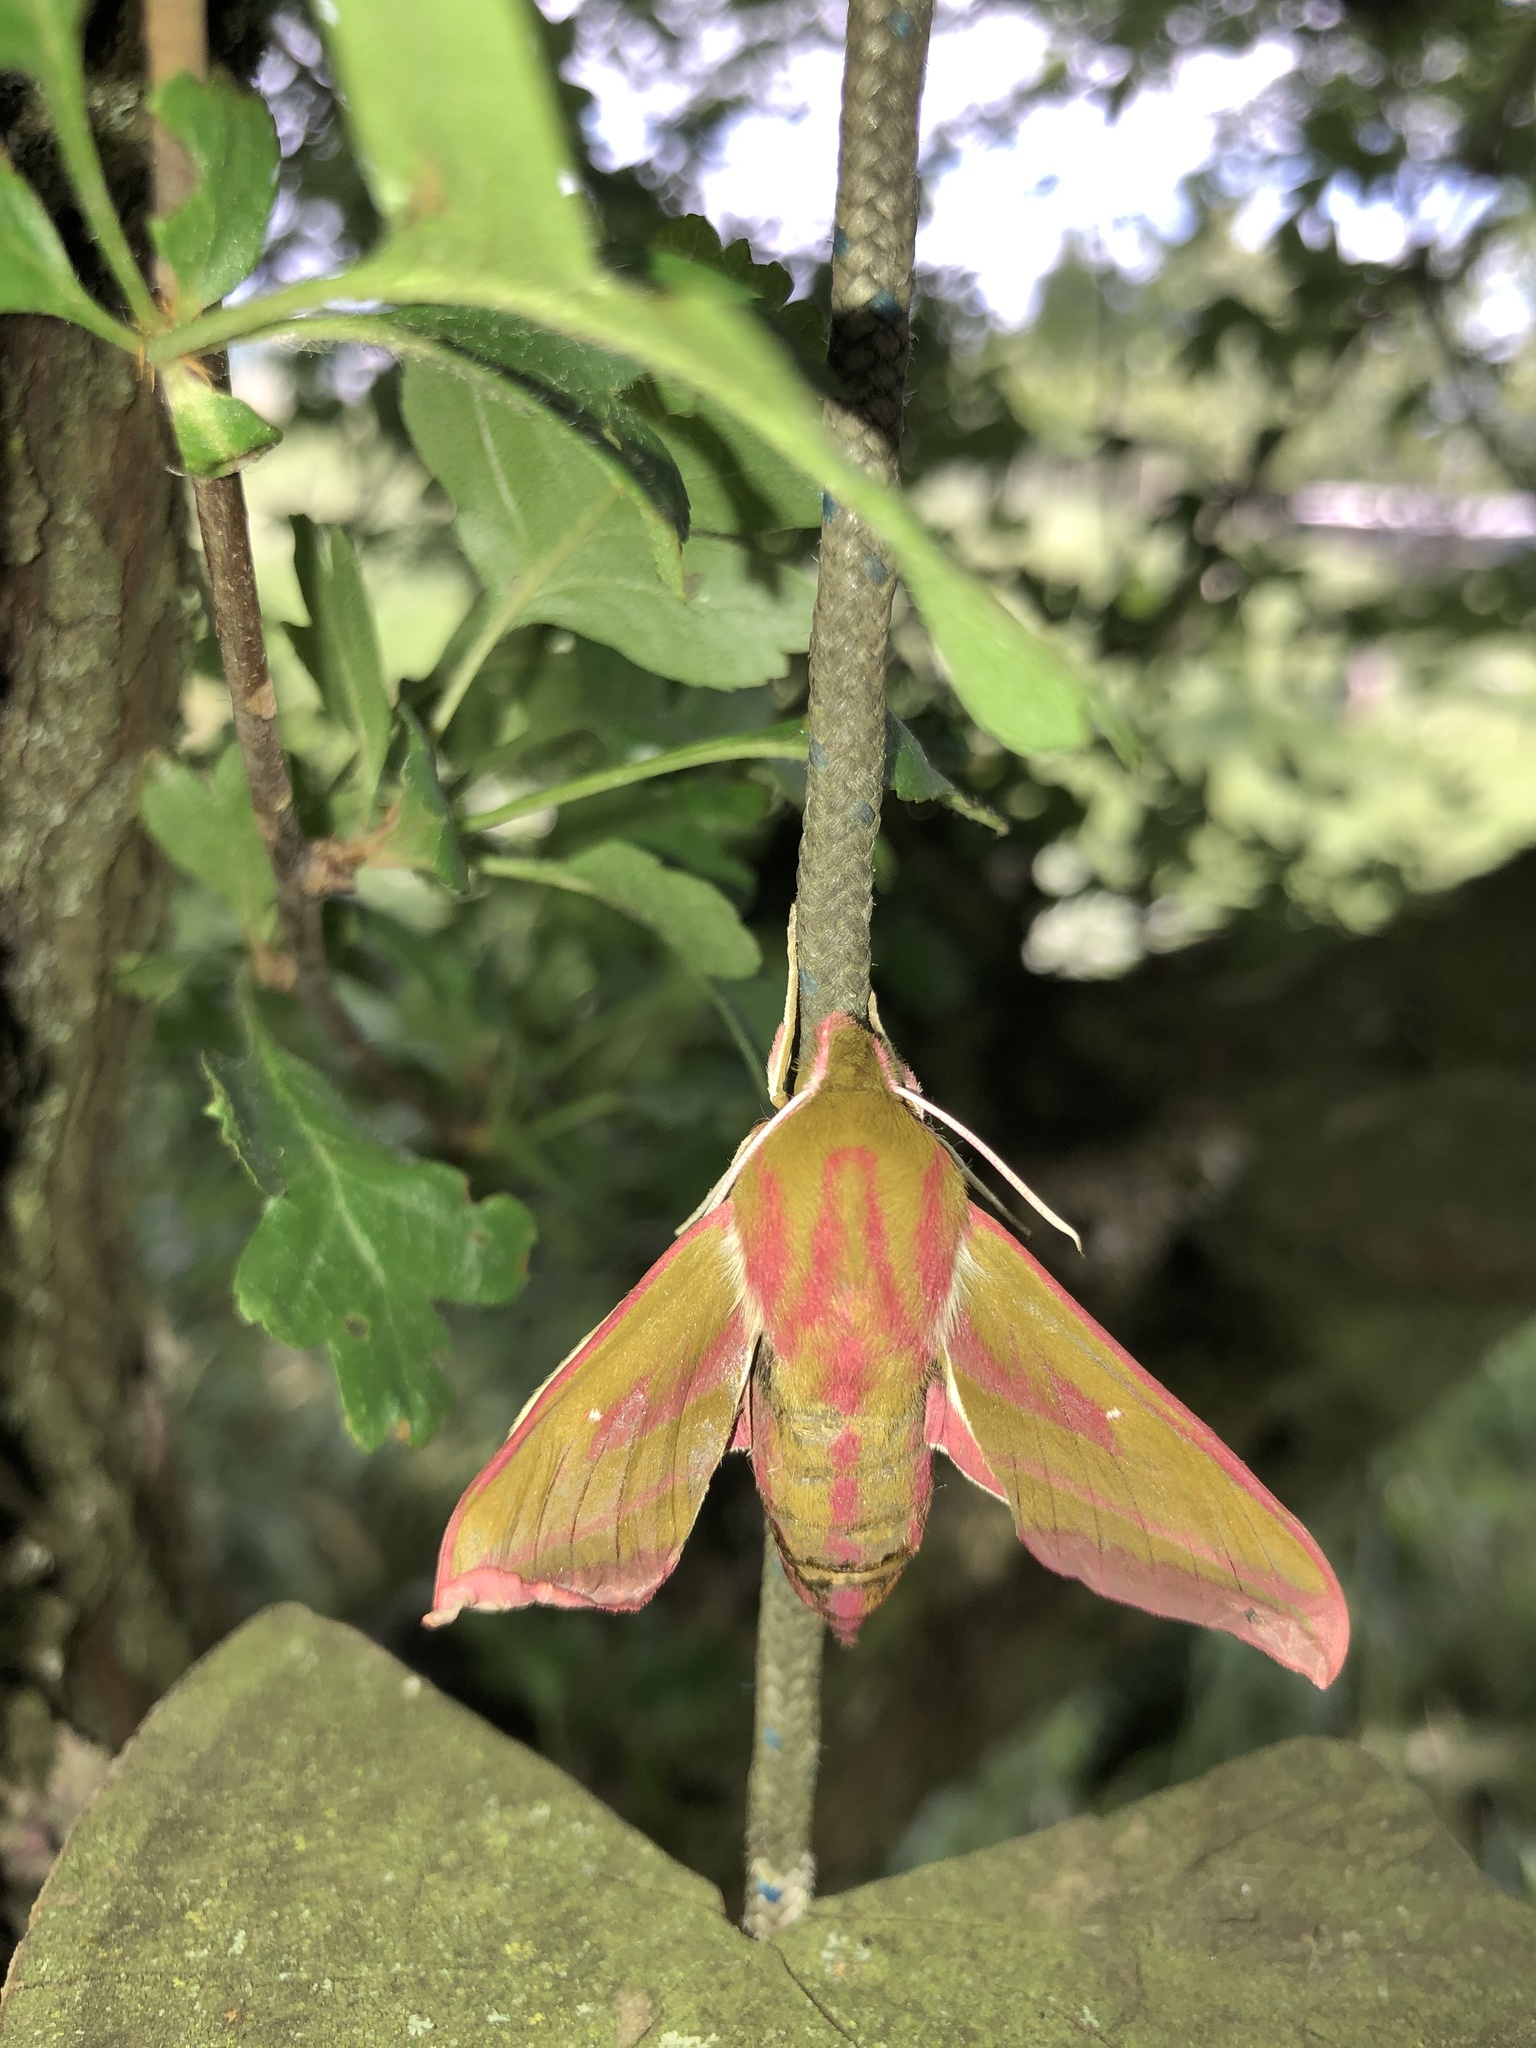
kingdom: Animalia
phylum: Arthropoda
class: Insecta
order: Lepidoptera
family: Sphingidae
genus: Deilephila
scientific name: Deilephila elpenor
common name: Elephant hawk-moth
